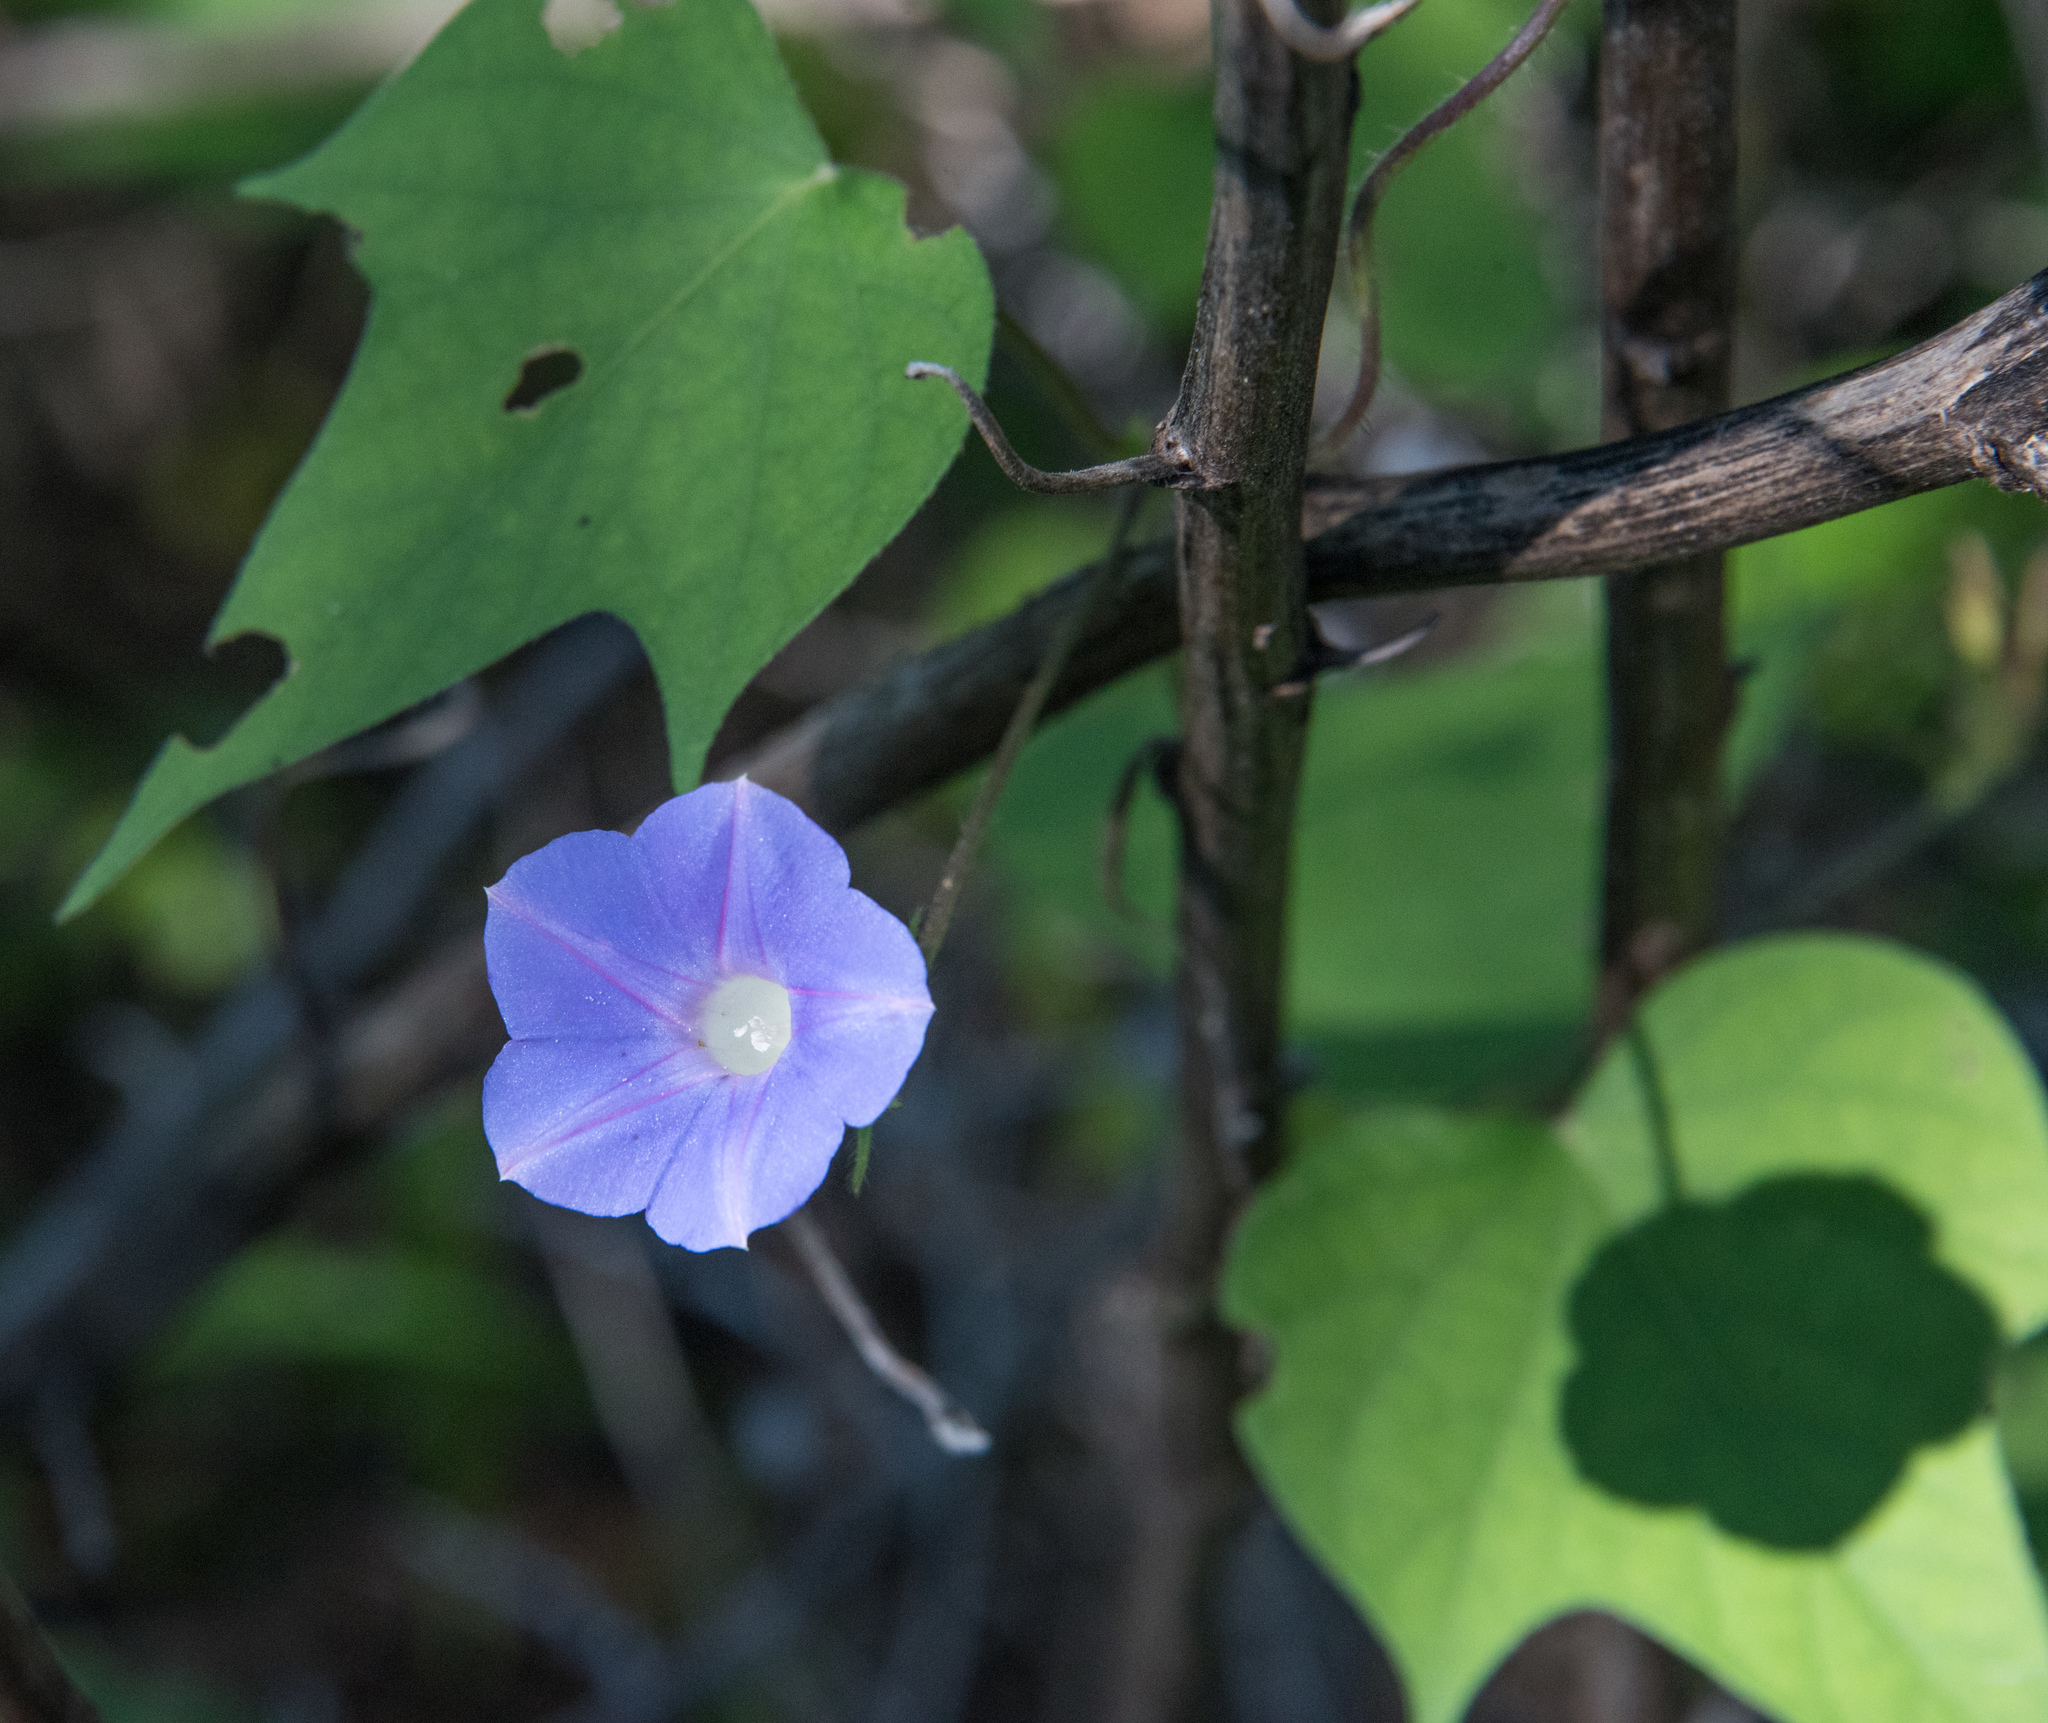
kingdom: Plantae
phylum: Tracheophyta
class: Magnoliopsida
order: Solanales
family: Convolvulaceae
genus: Ipomoea
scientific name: Ipomoea hederacea
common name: Ivy-leaved morning-glory
